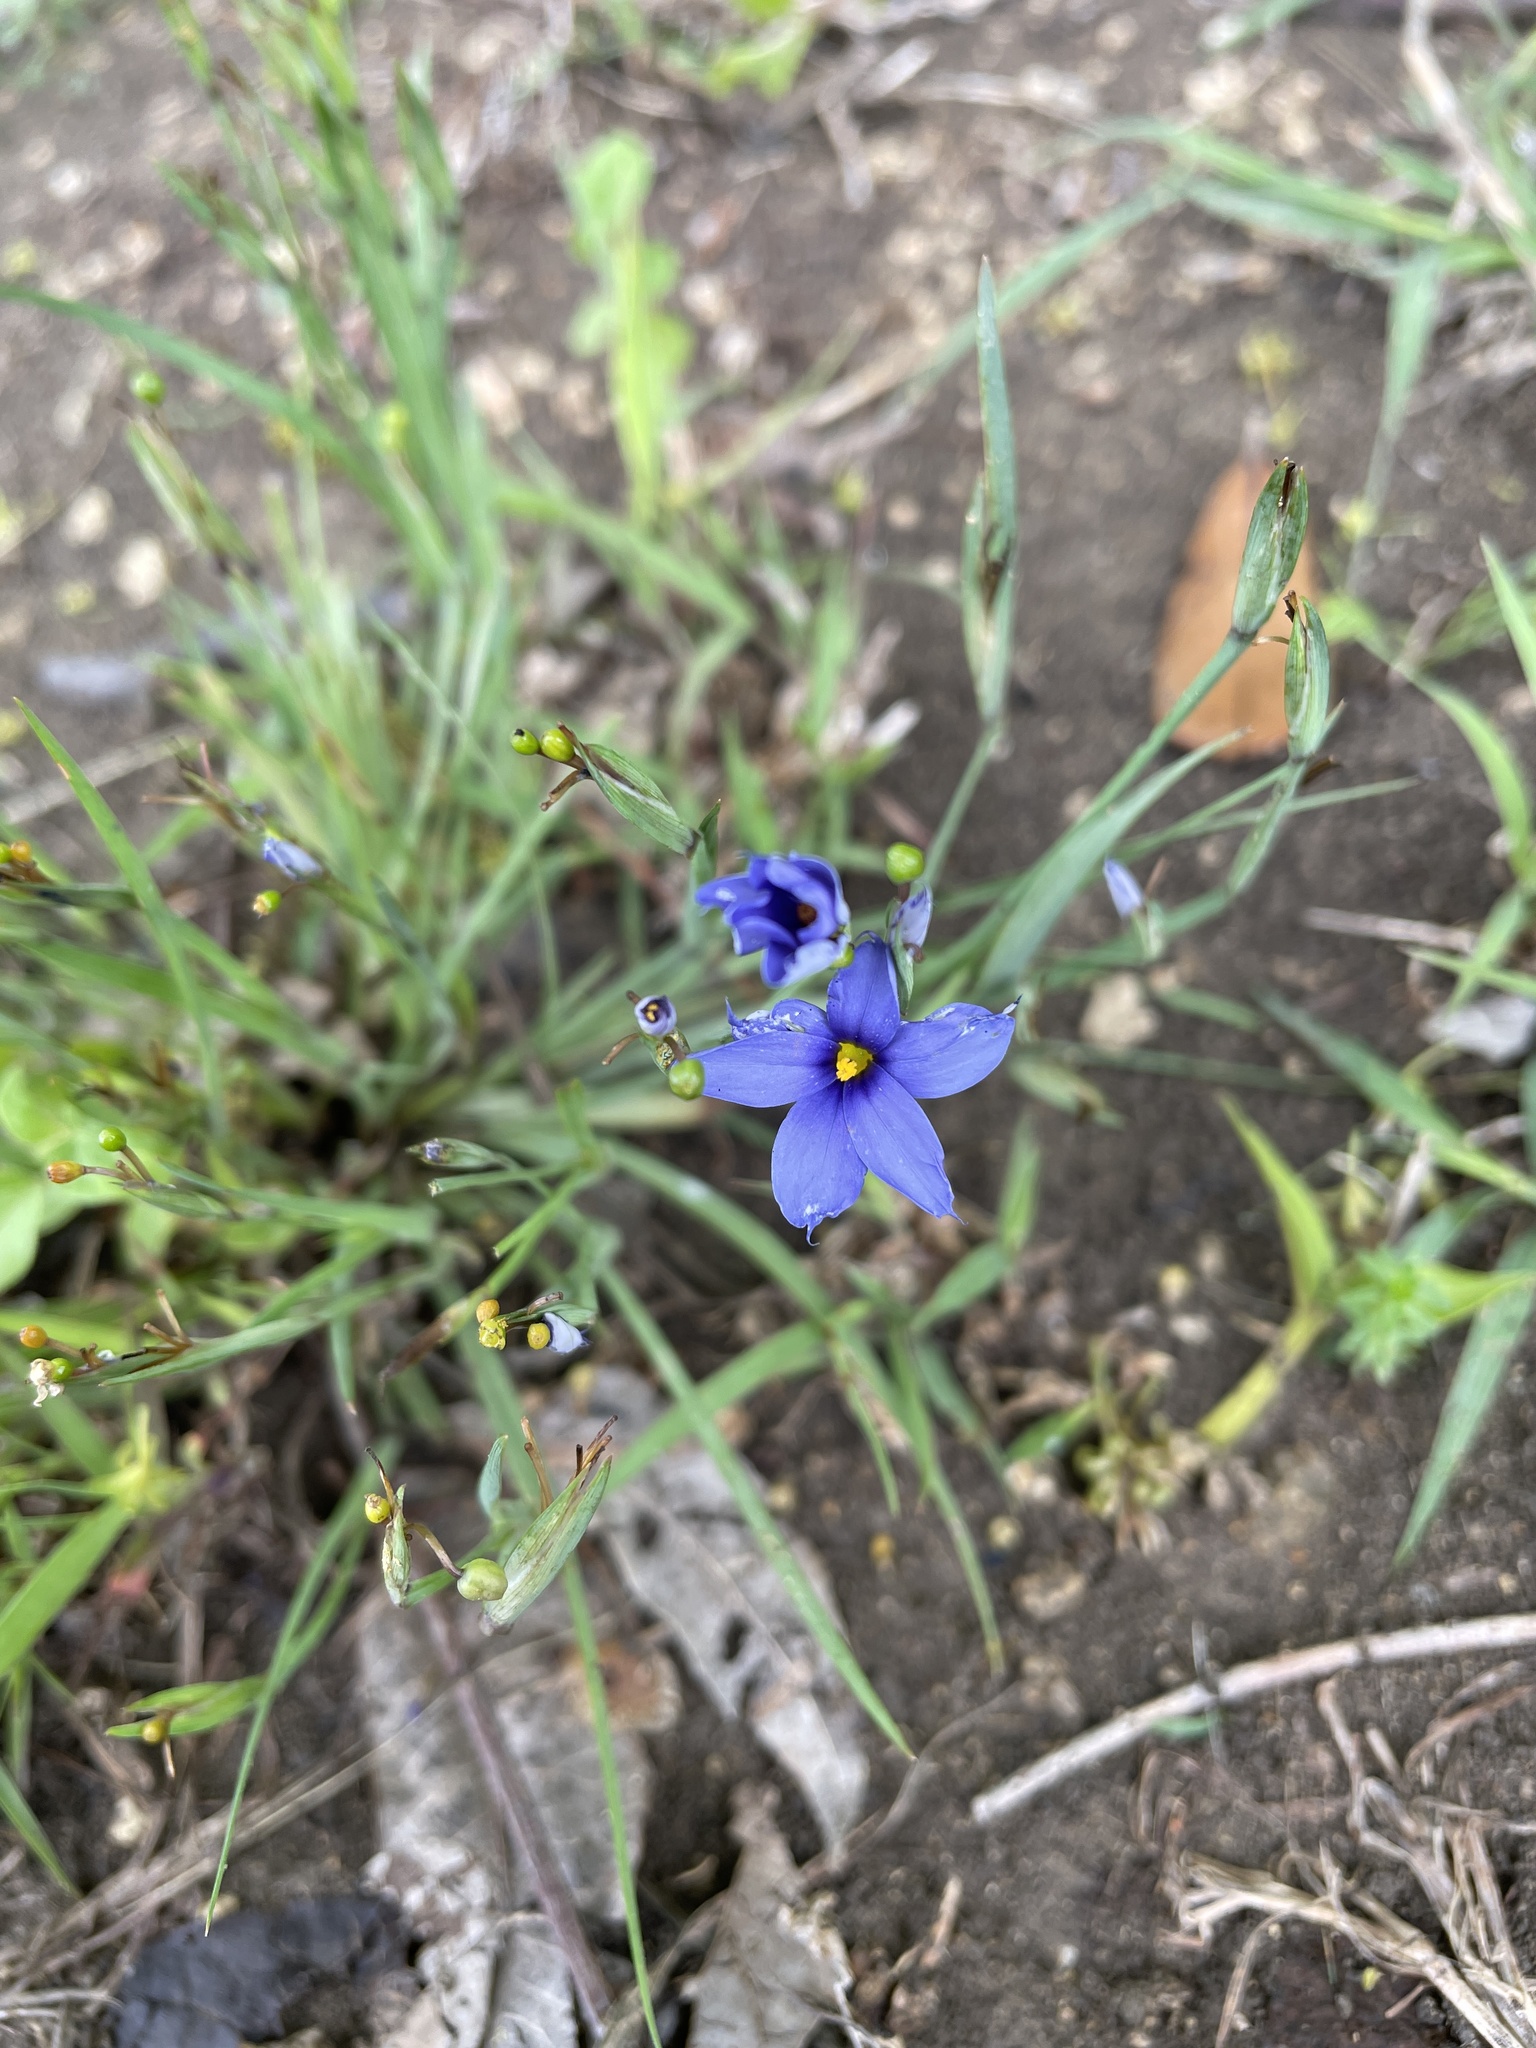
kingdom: Plantae
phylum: Tracheophyta
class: Liliopsida
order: Asparagales
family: Iridaceae
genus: Sisyrinchium
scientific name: Sisyrinchium pruinosum
